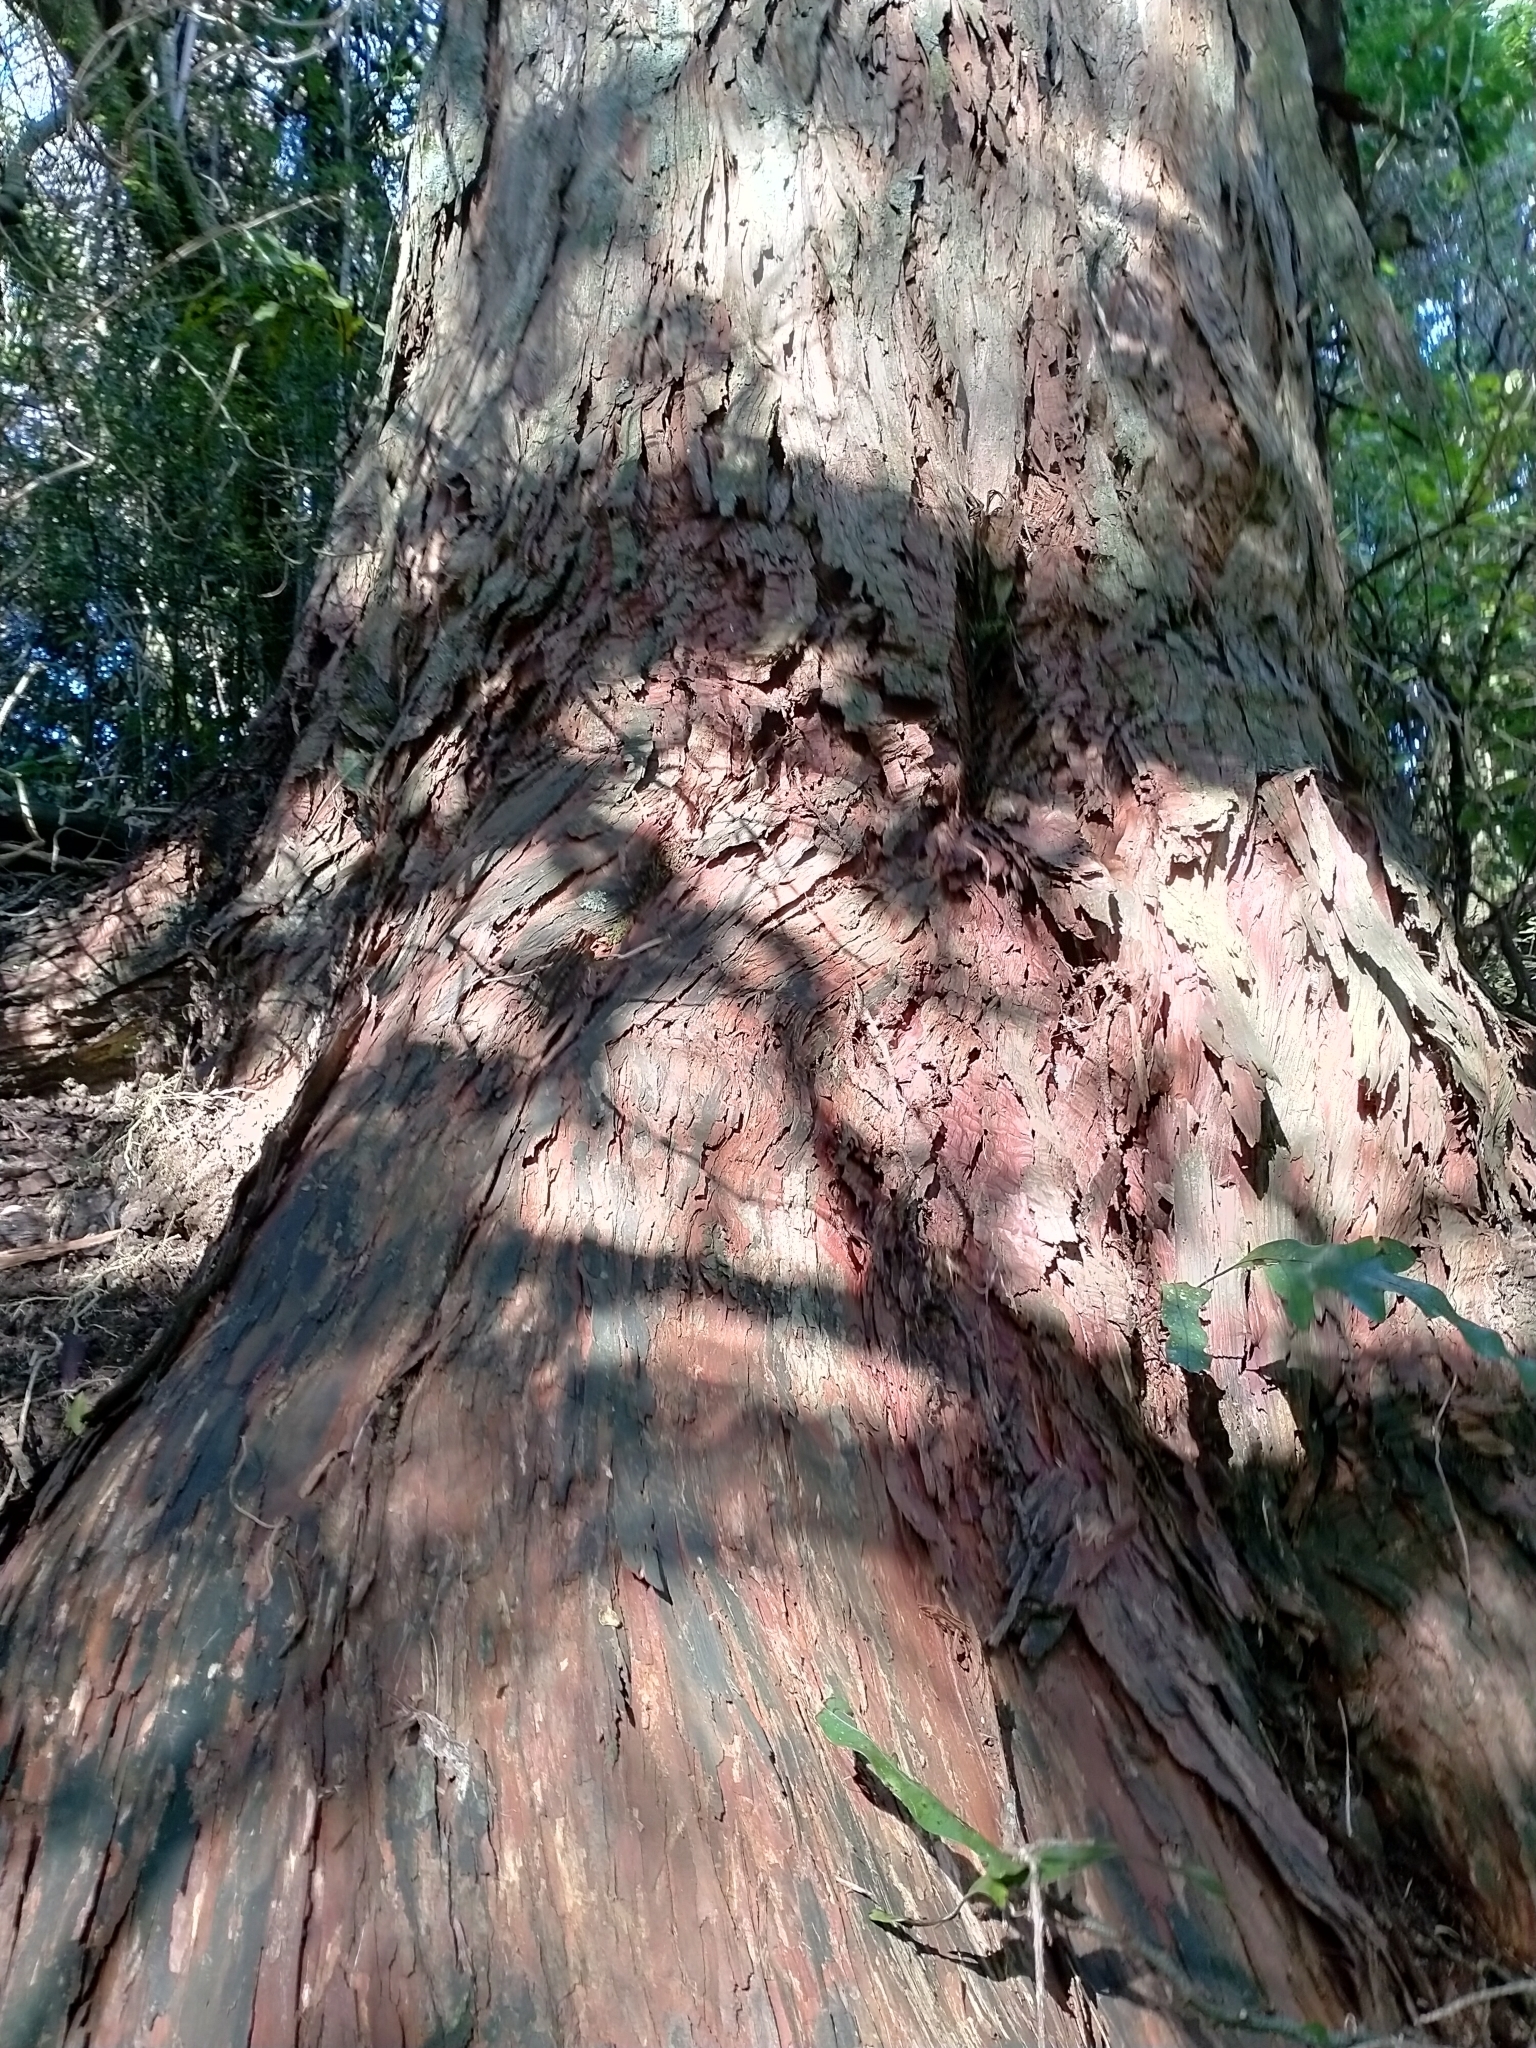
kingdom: Plantae
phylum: Tracheophyta
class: Pinopsida
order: Pinales
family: Podocarpaceae
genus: Podocarpus
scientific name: Podocarpus totara
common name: Totara
